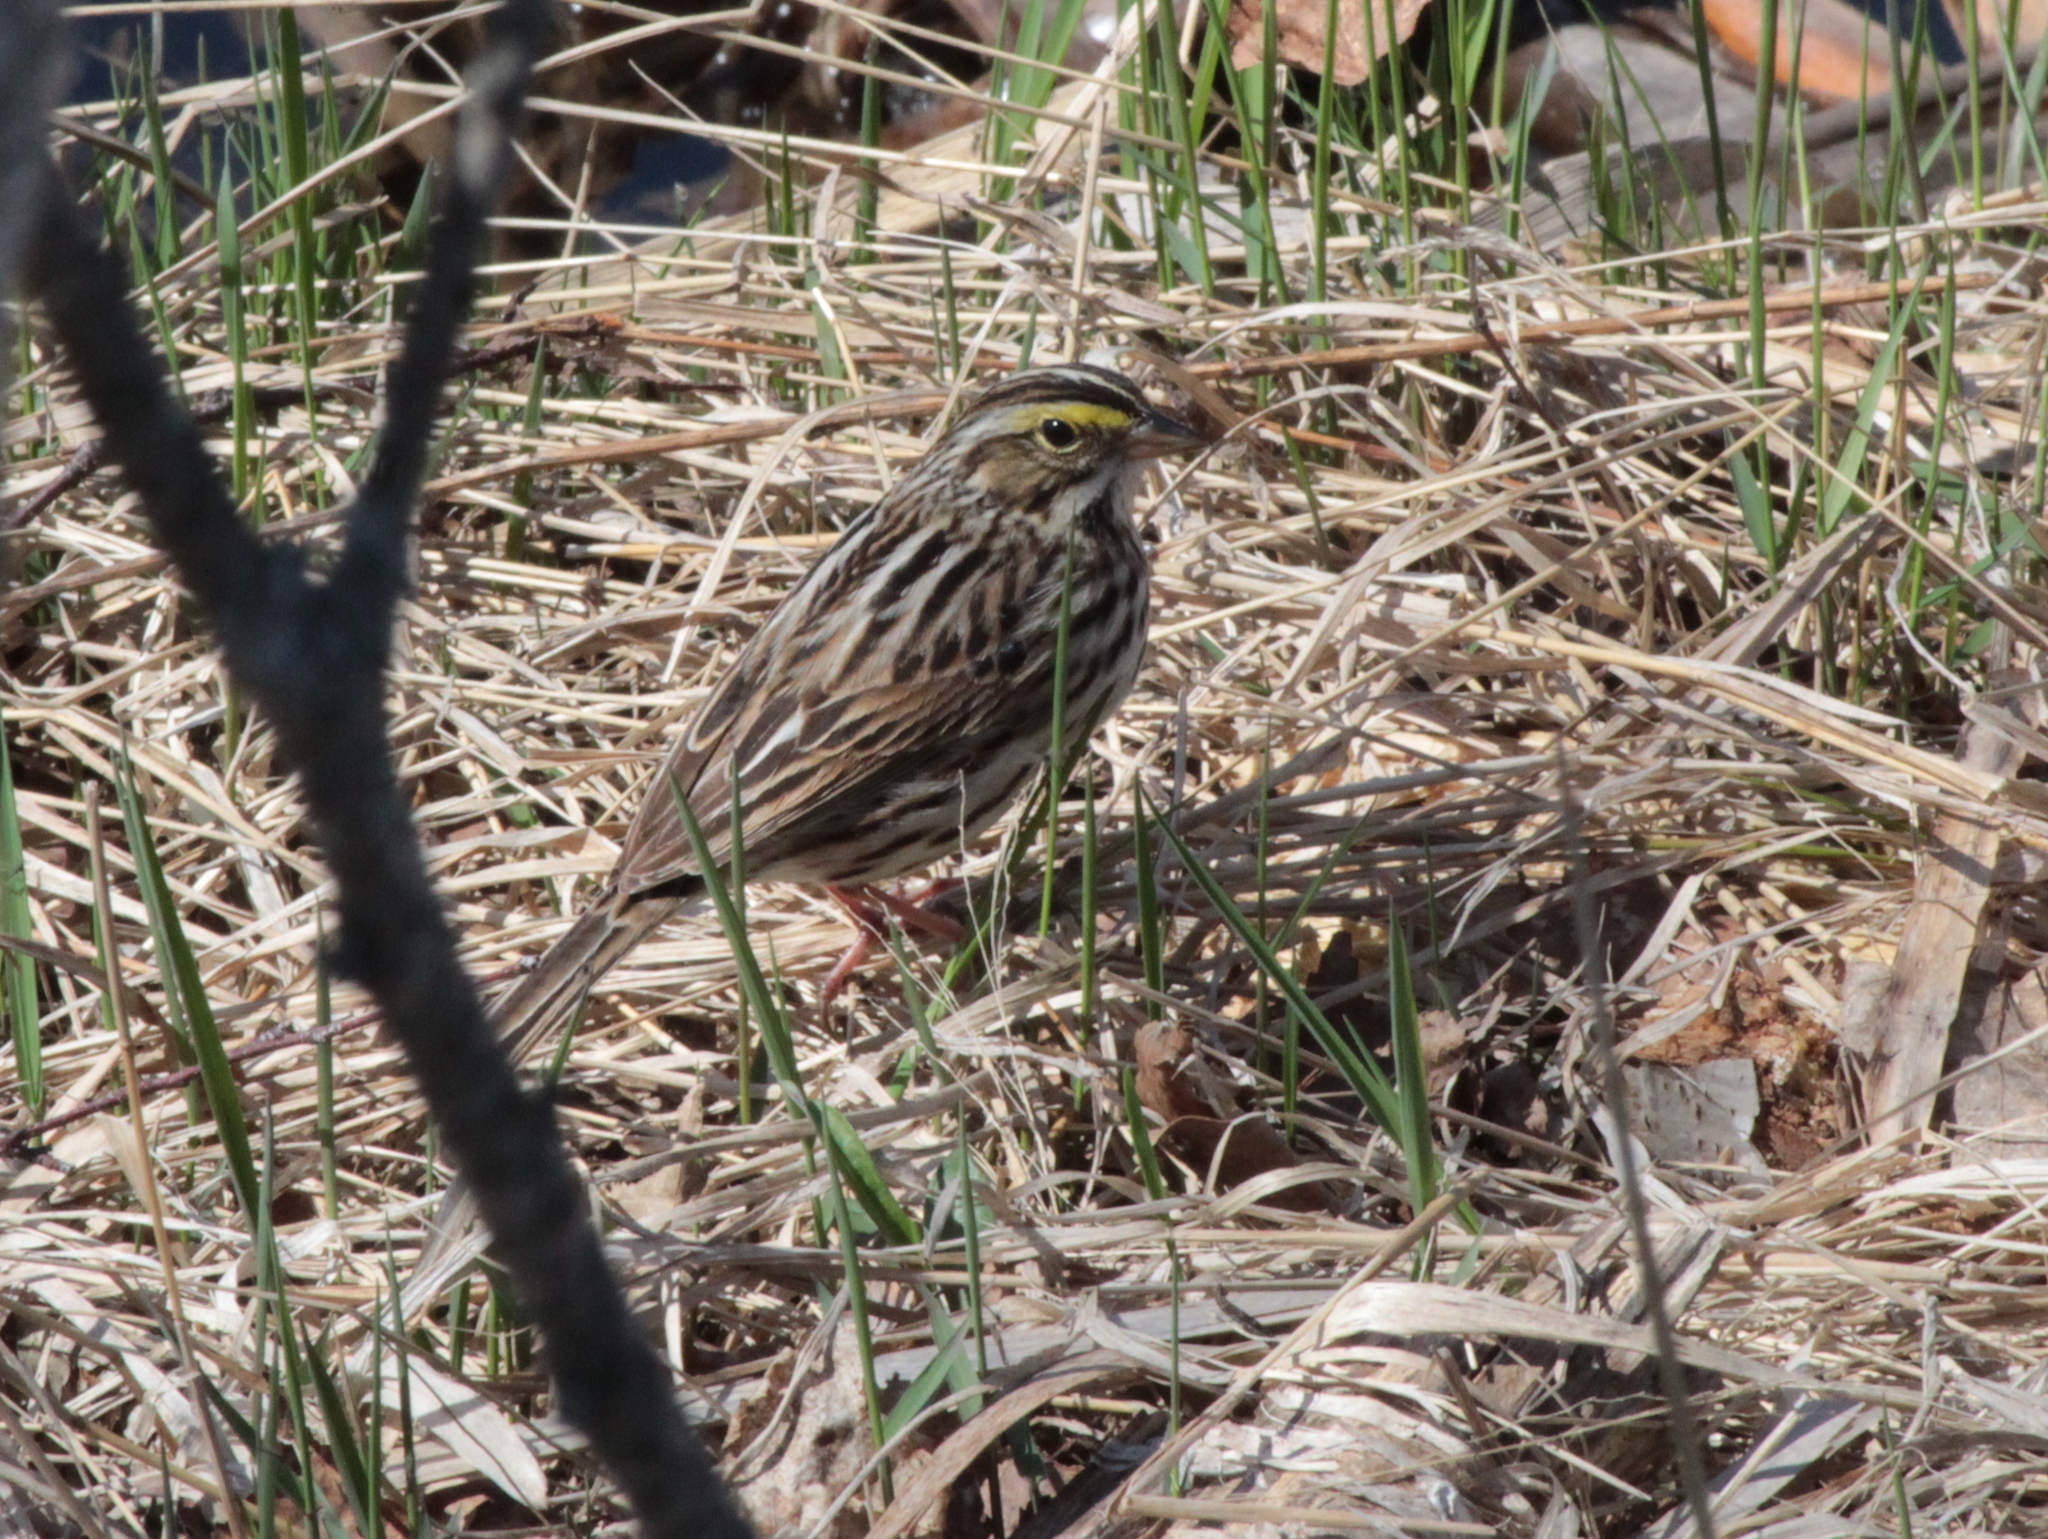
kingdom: Animalia
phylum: Chordata
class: Aves
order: Passeriformes
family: Passerellidae
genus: Passerculus
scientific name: Passerculus sandwichensis
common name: Savannah sparrow
